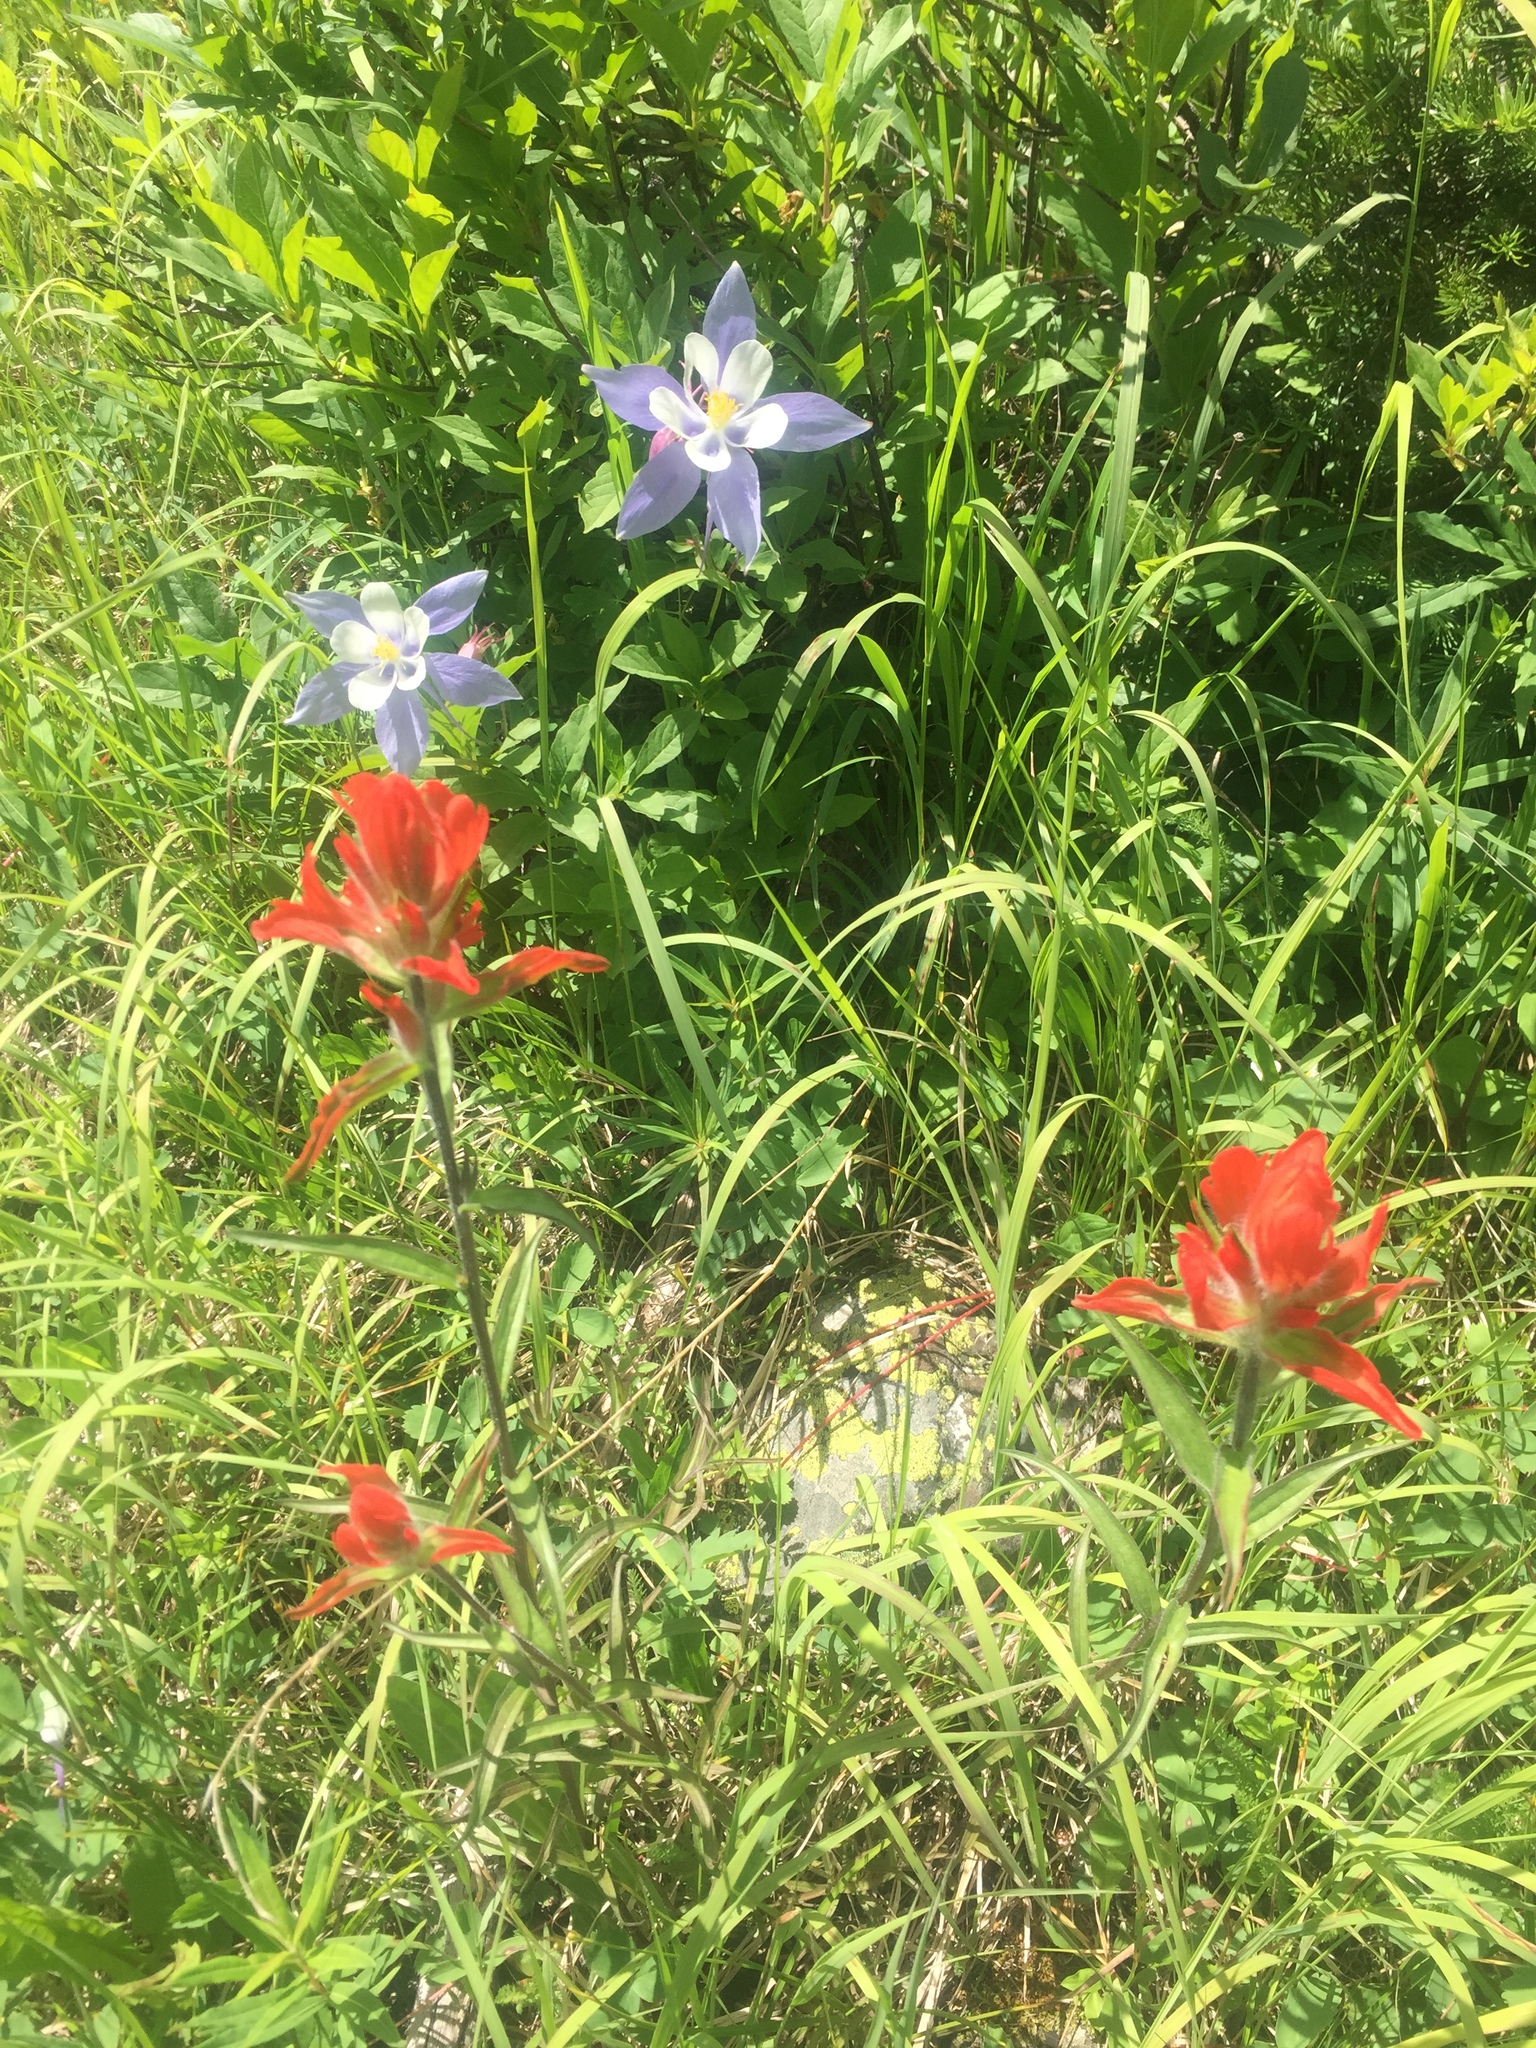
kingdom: Plantae
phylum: Tracheophyta
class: Magnoliopsida
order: Ranunculales
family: Ranunculaceae
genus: Aquilegia
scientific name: Aquilegia coerulea
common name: Rocky mountain columbine
